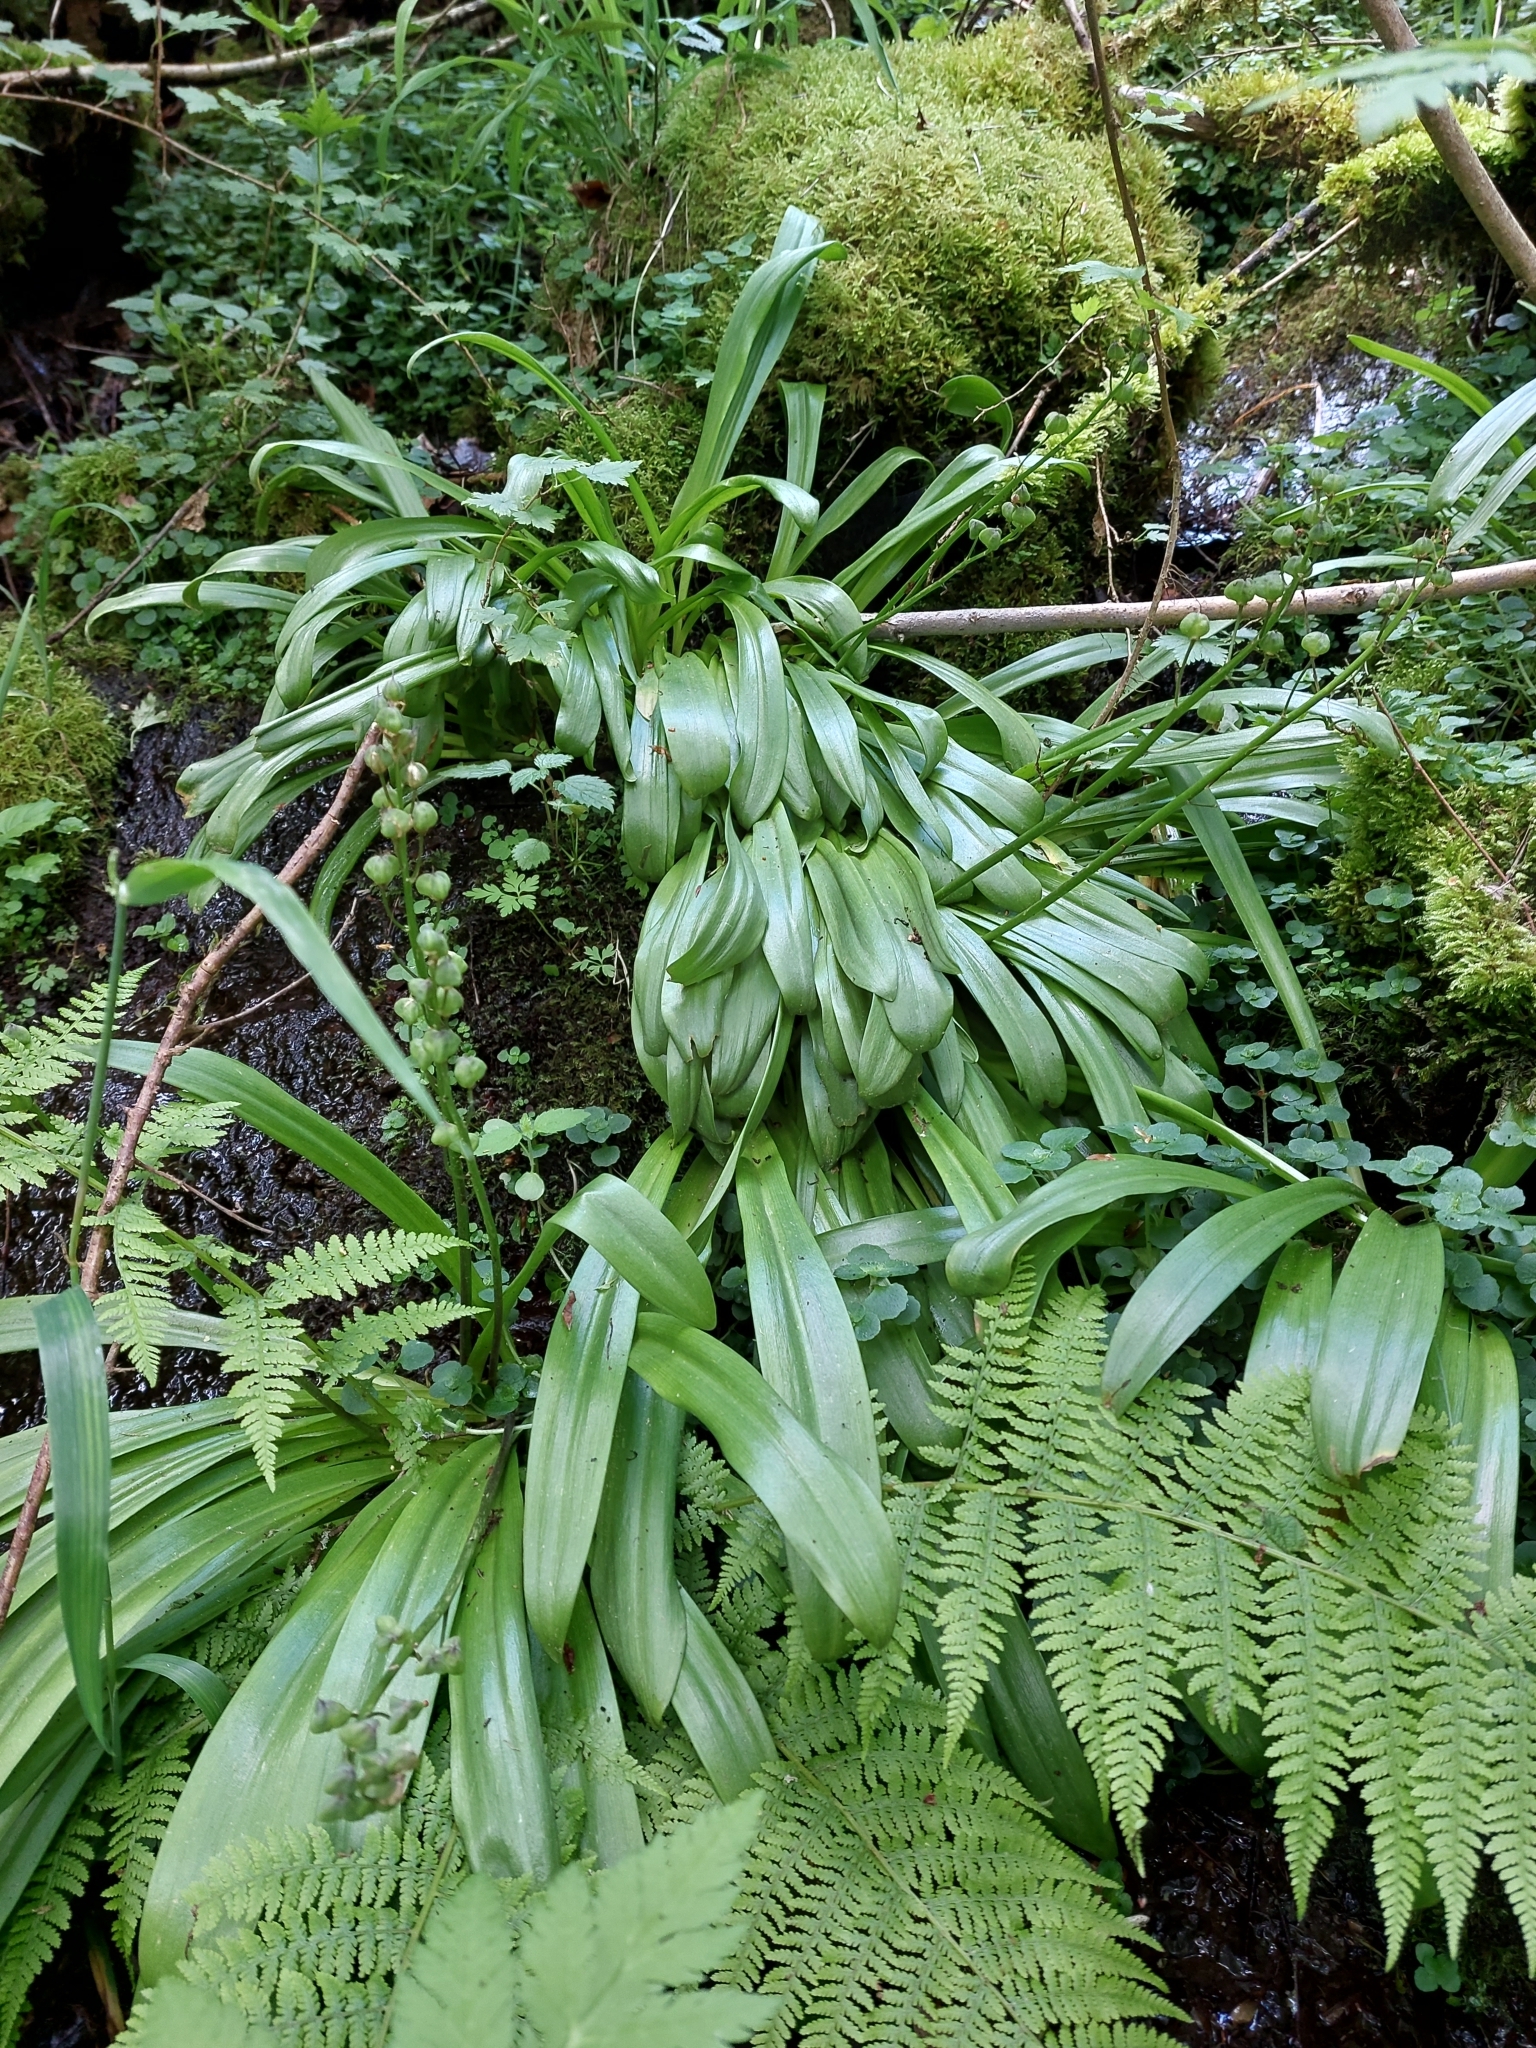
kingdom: Plantae
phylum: Tracheophyta
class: Liliopsida
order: Asparagales
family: Asparagaceae
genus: Scilla
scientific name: Scilla lilio-hyacinthus
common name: Pyrenean squill
